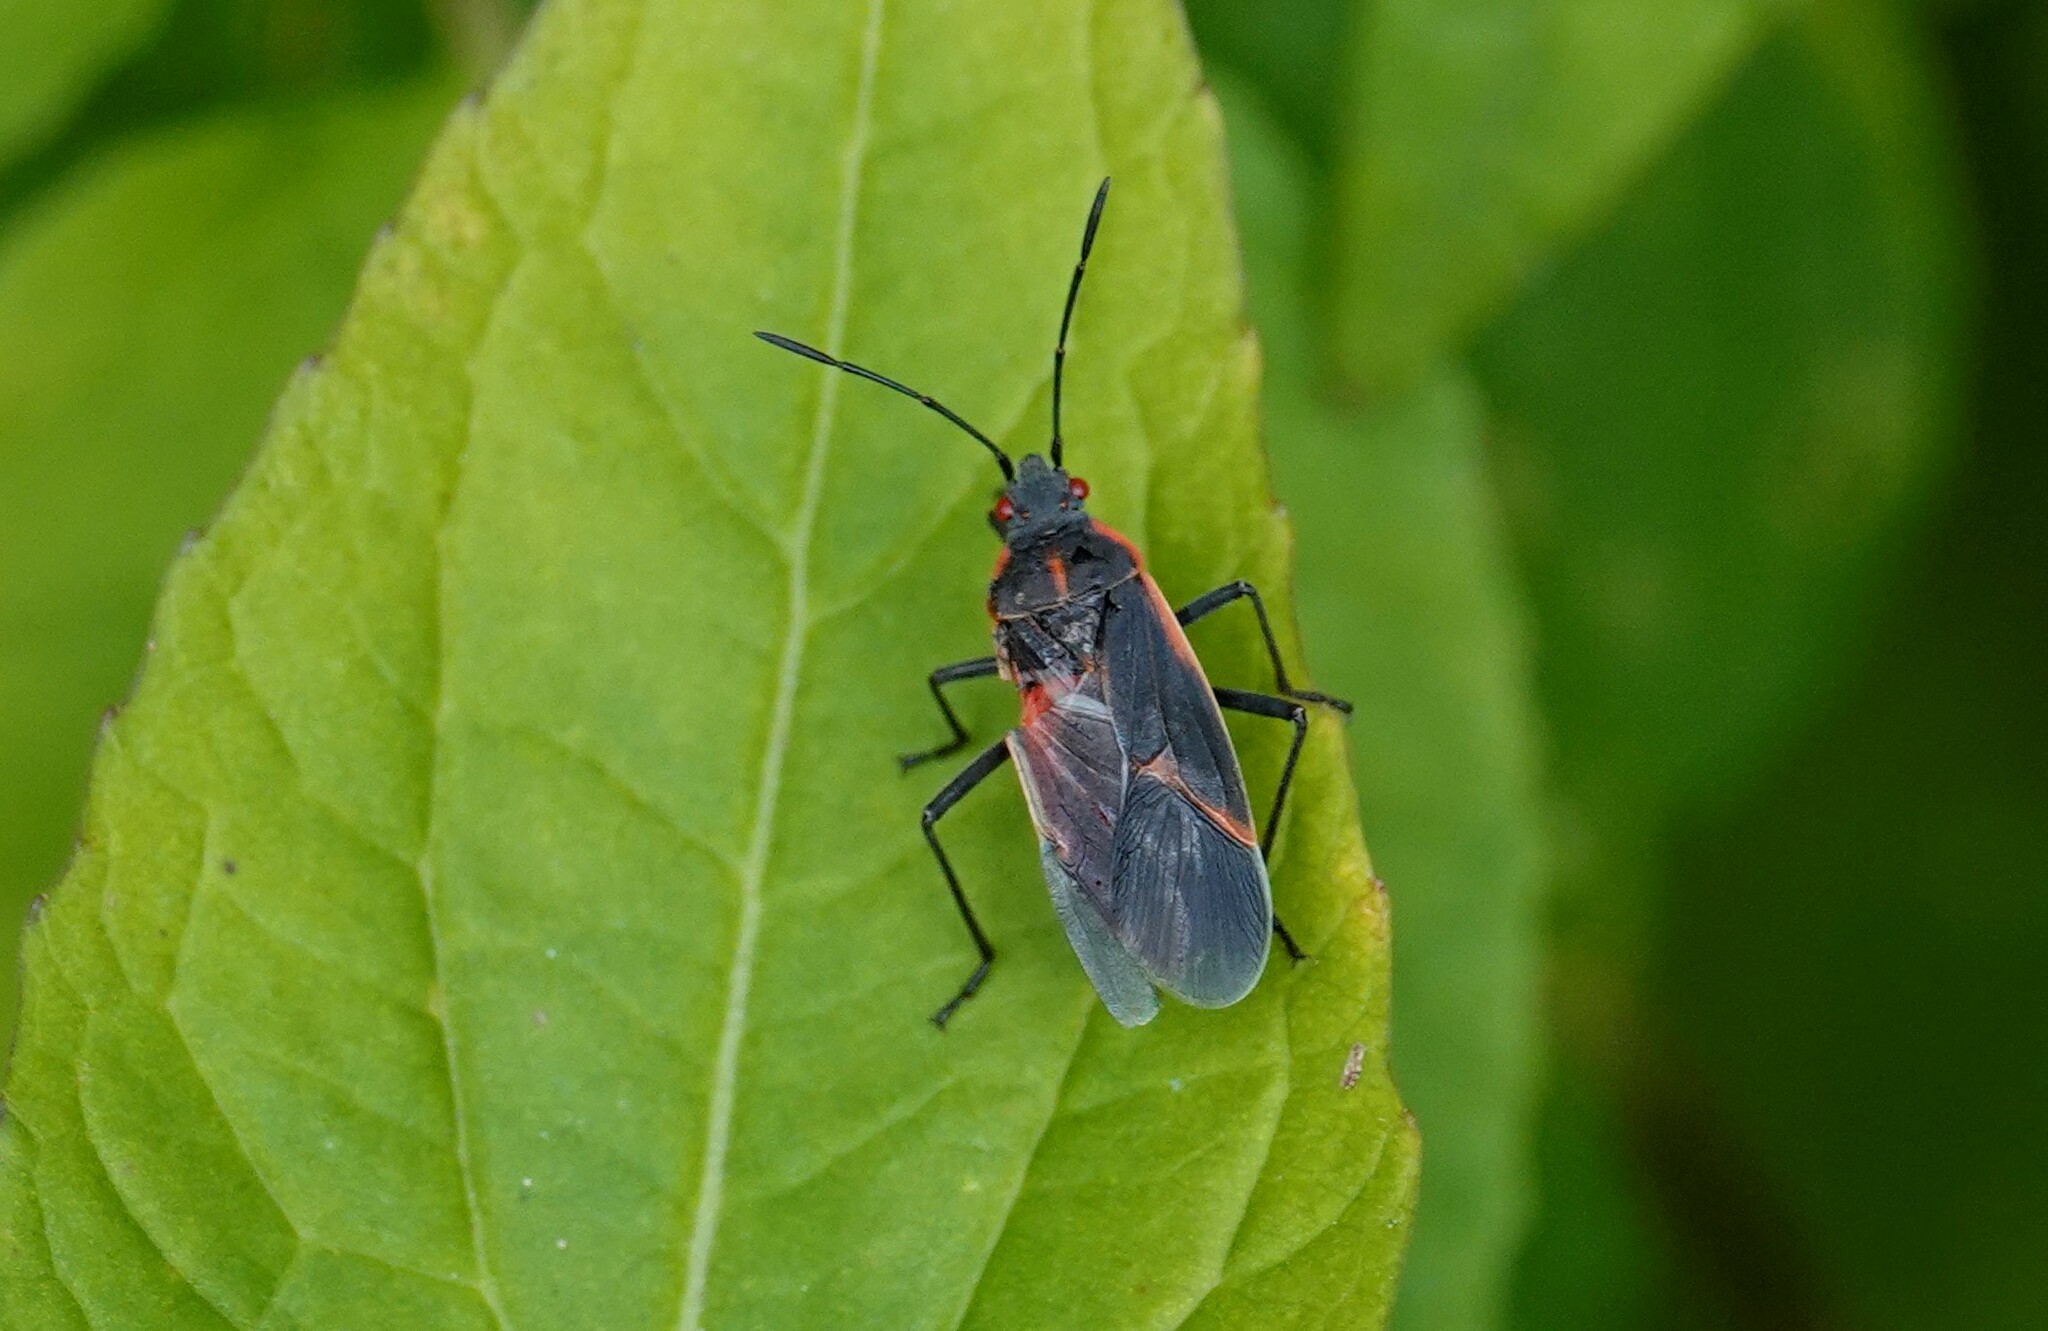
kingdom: Animalia
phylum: Arthropoda
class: Insecta
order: Hemiptera
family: Rhopalidae
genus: Boisea
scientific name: Boisea trivittata
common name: Boxelder bug
